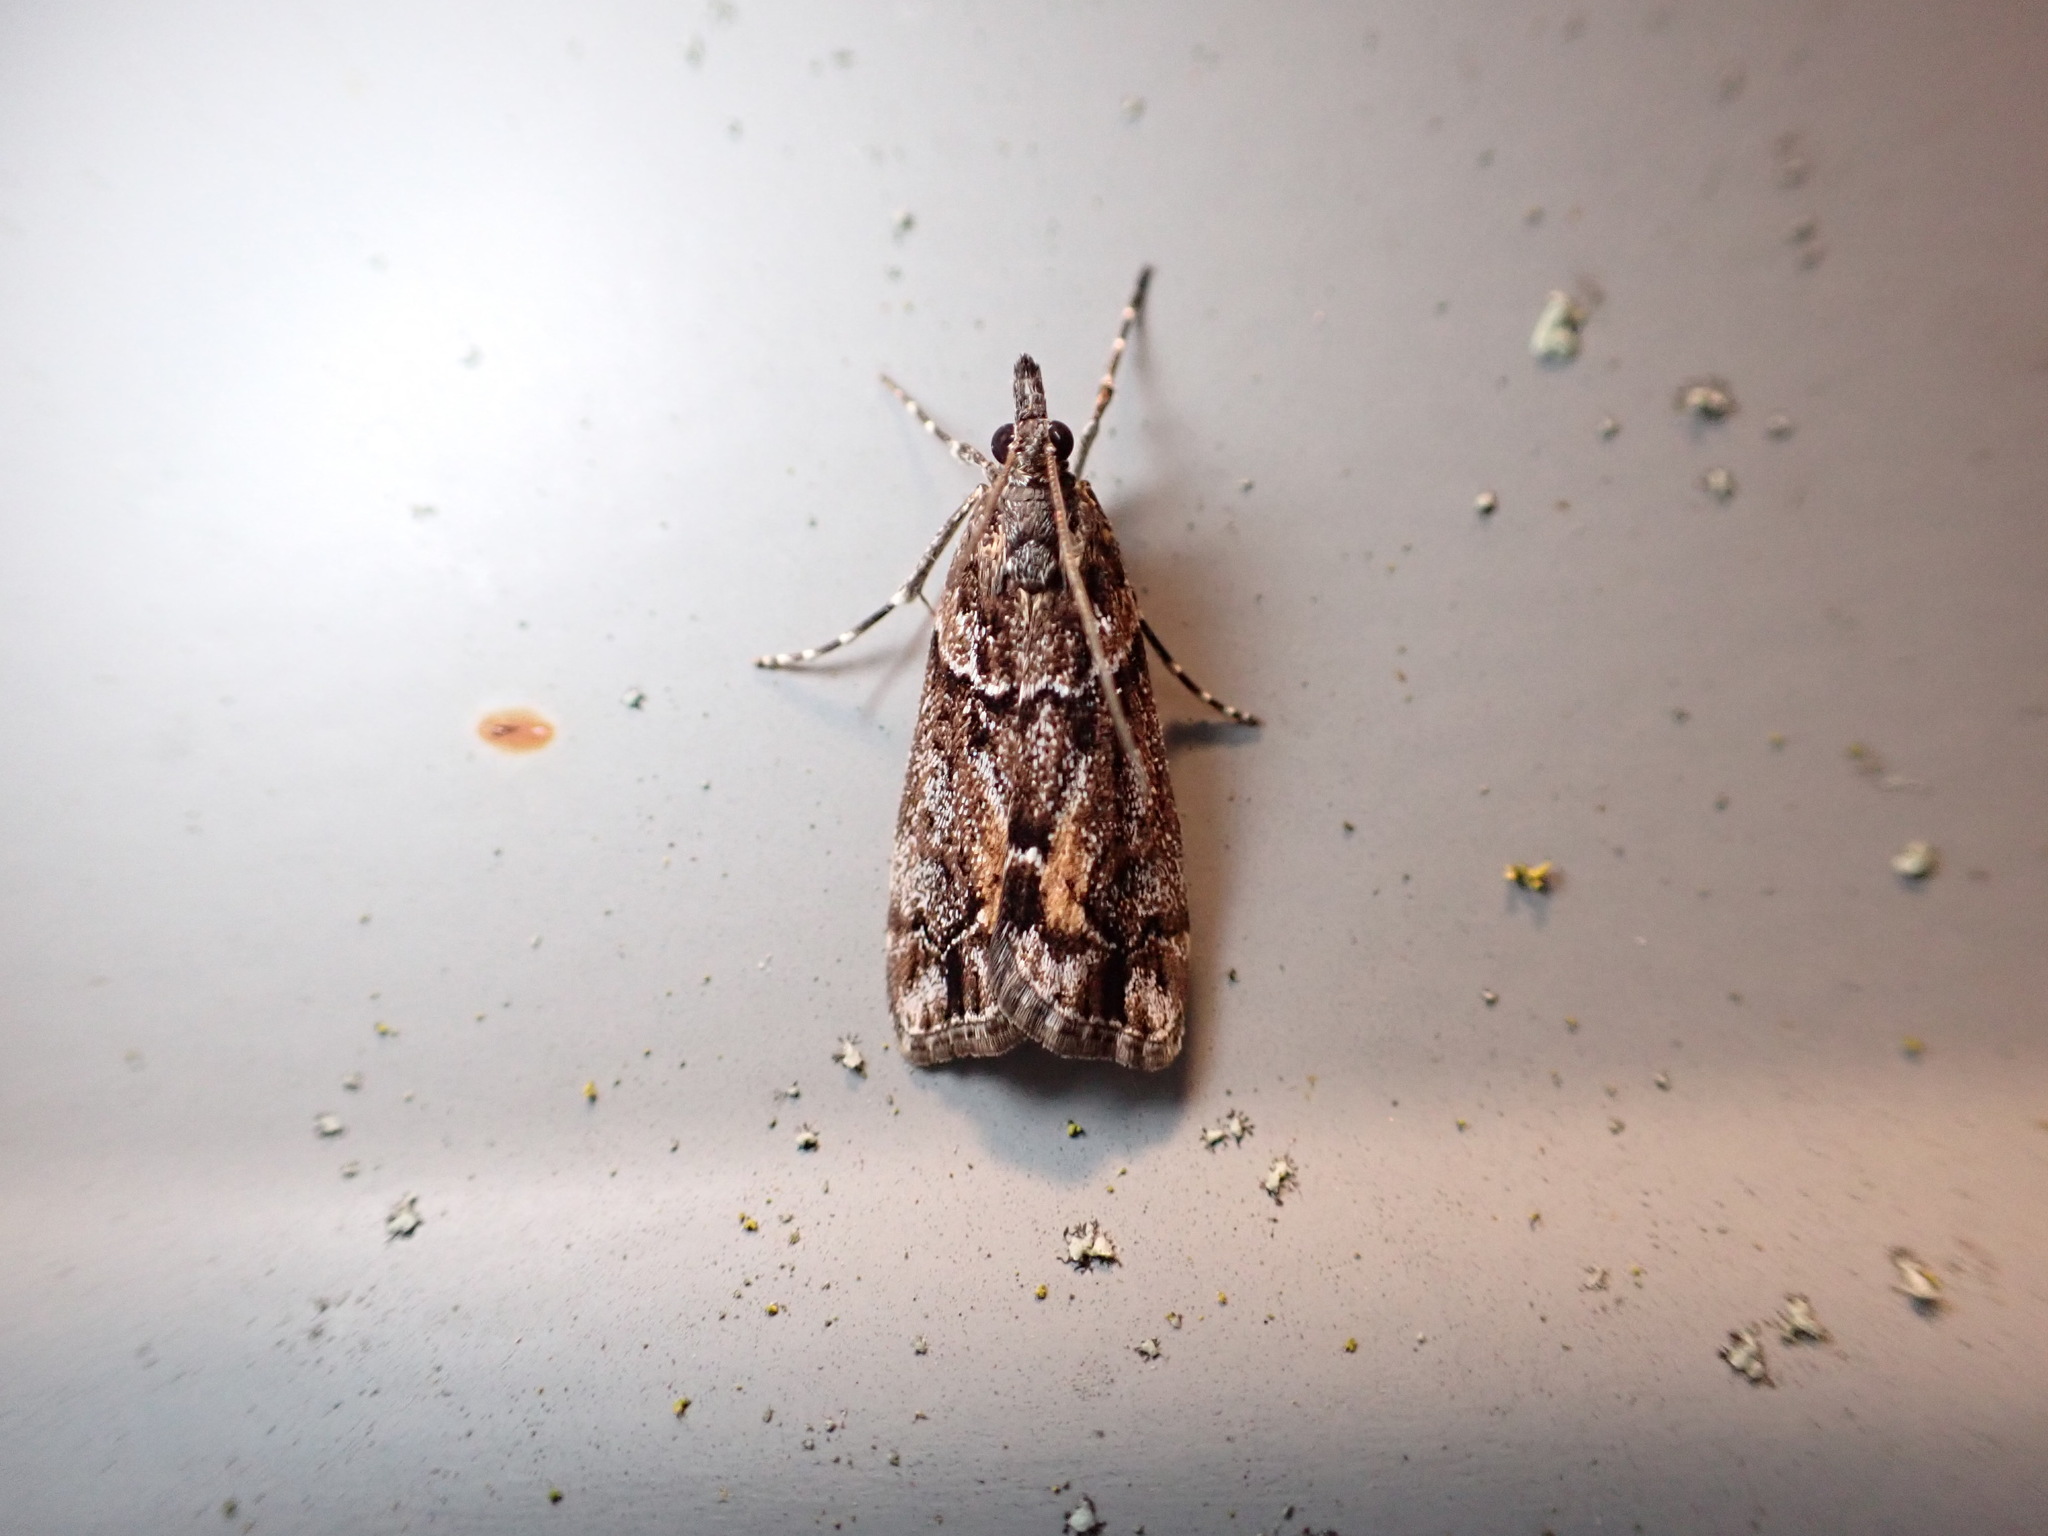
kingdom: Animalia
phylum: Arthropoda
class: Insecta
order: Lepidoptera
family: Crambidae
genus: Eudonia
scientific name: Eudonia submarginalis
